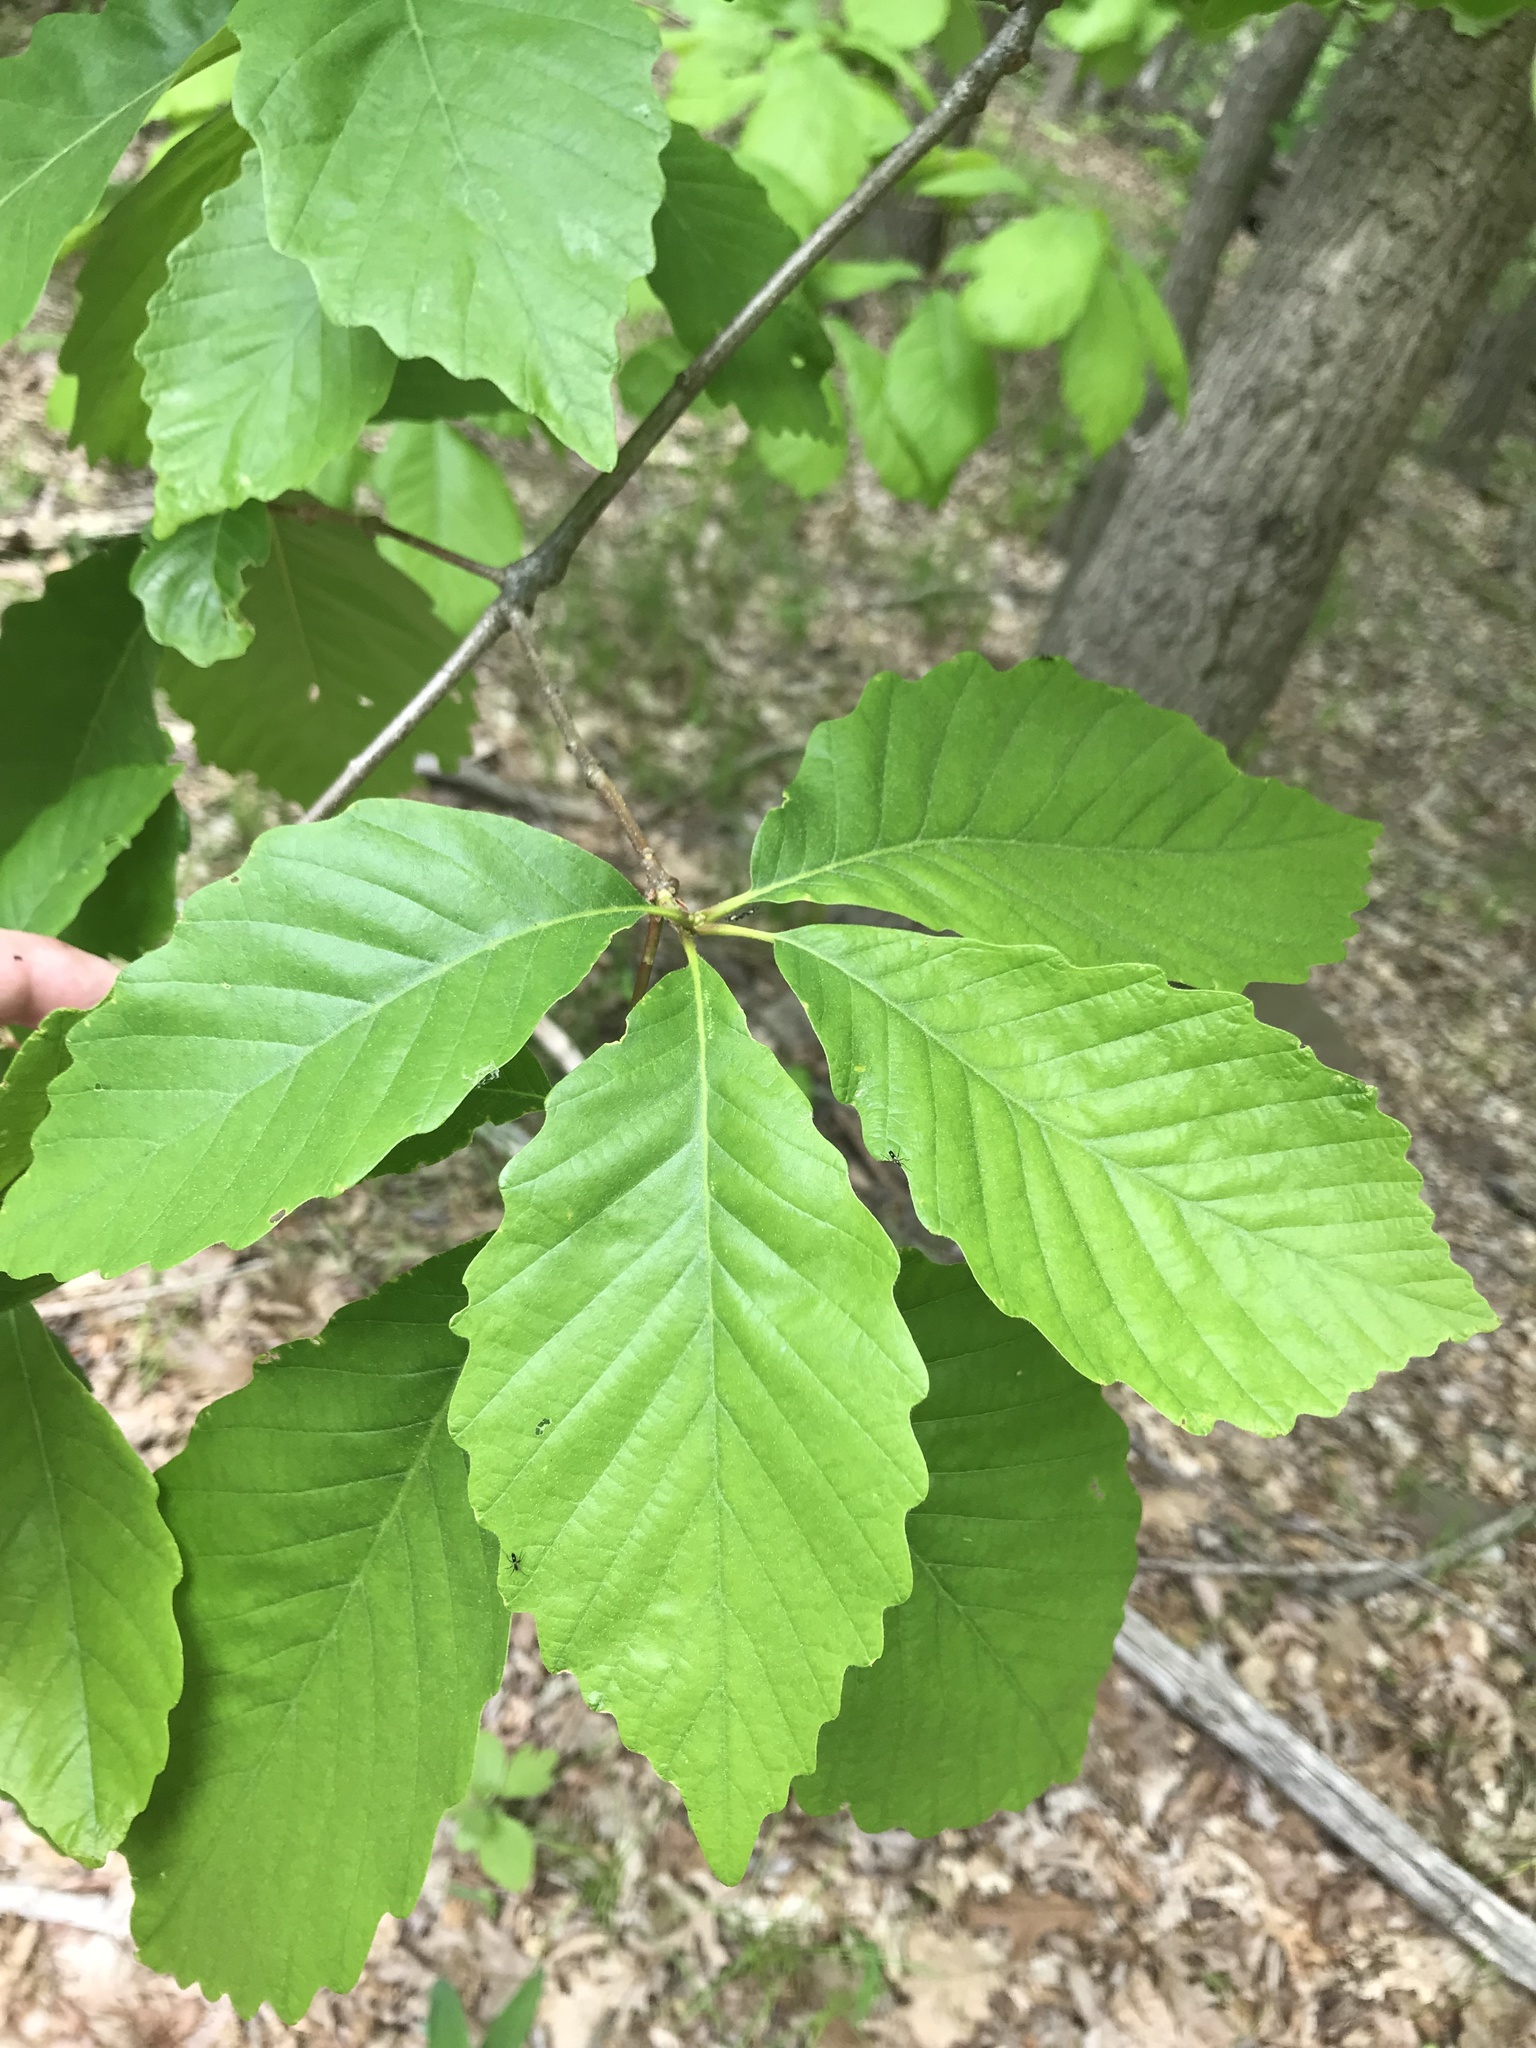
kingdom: Plantae
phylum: Tracheophyta
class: Magnoliopsida
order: Fagales
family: Fagaceae
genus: Quercus
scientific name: Quercus montana
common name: Chestnut oak
